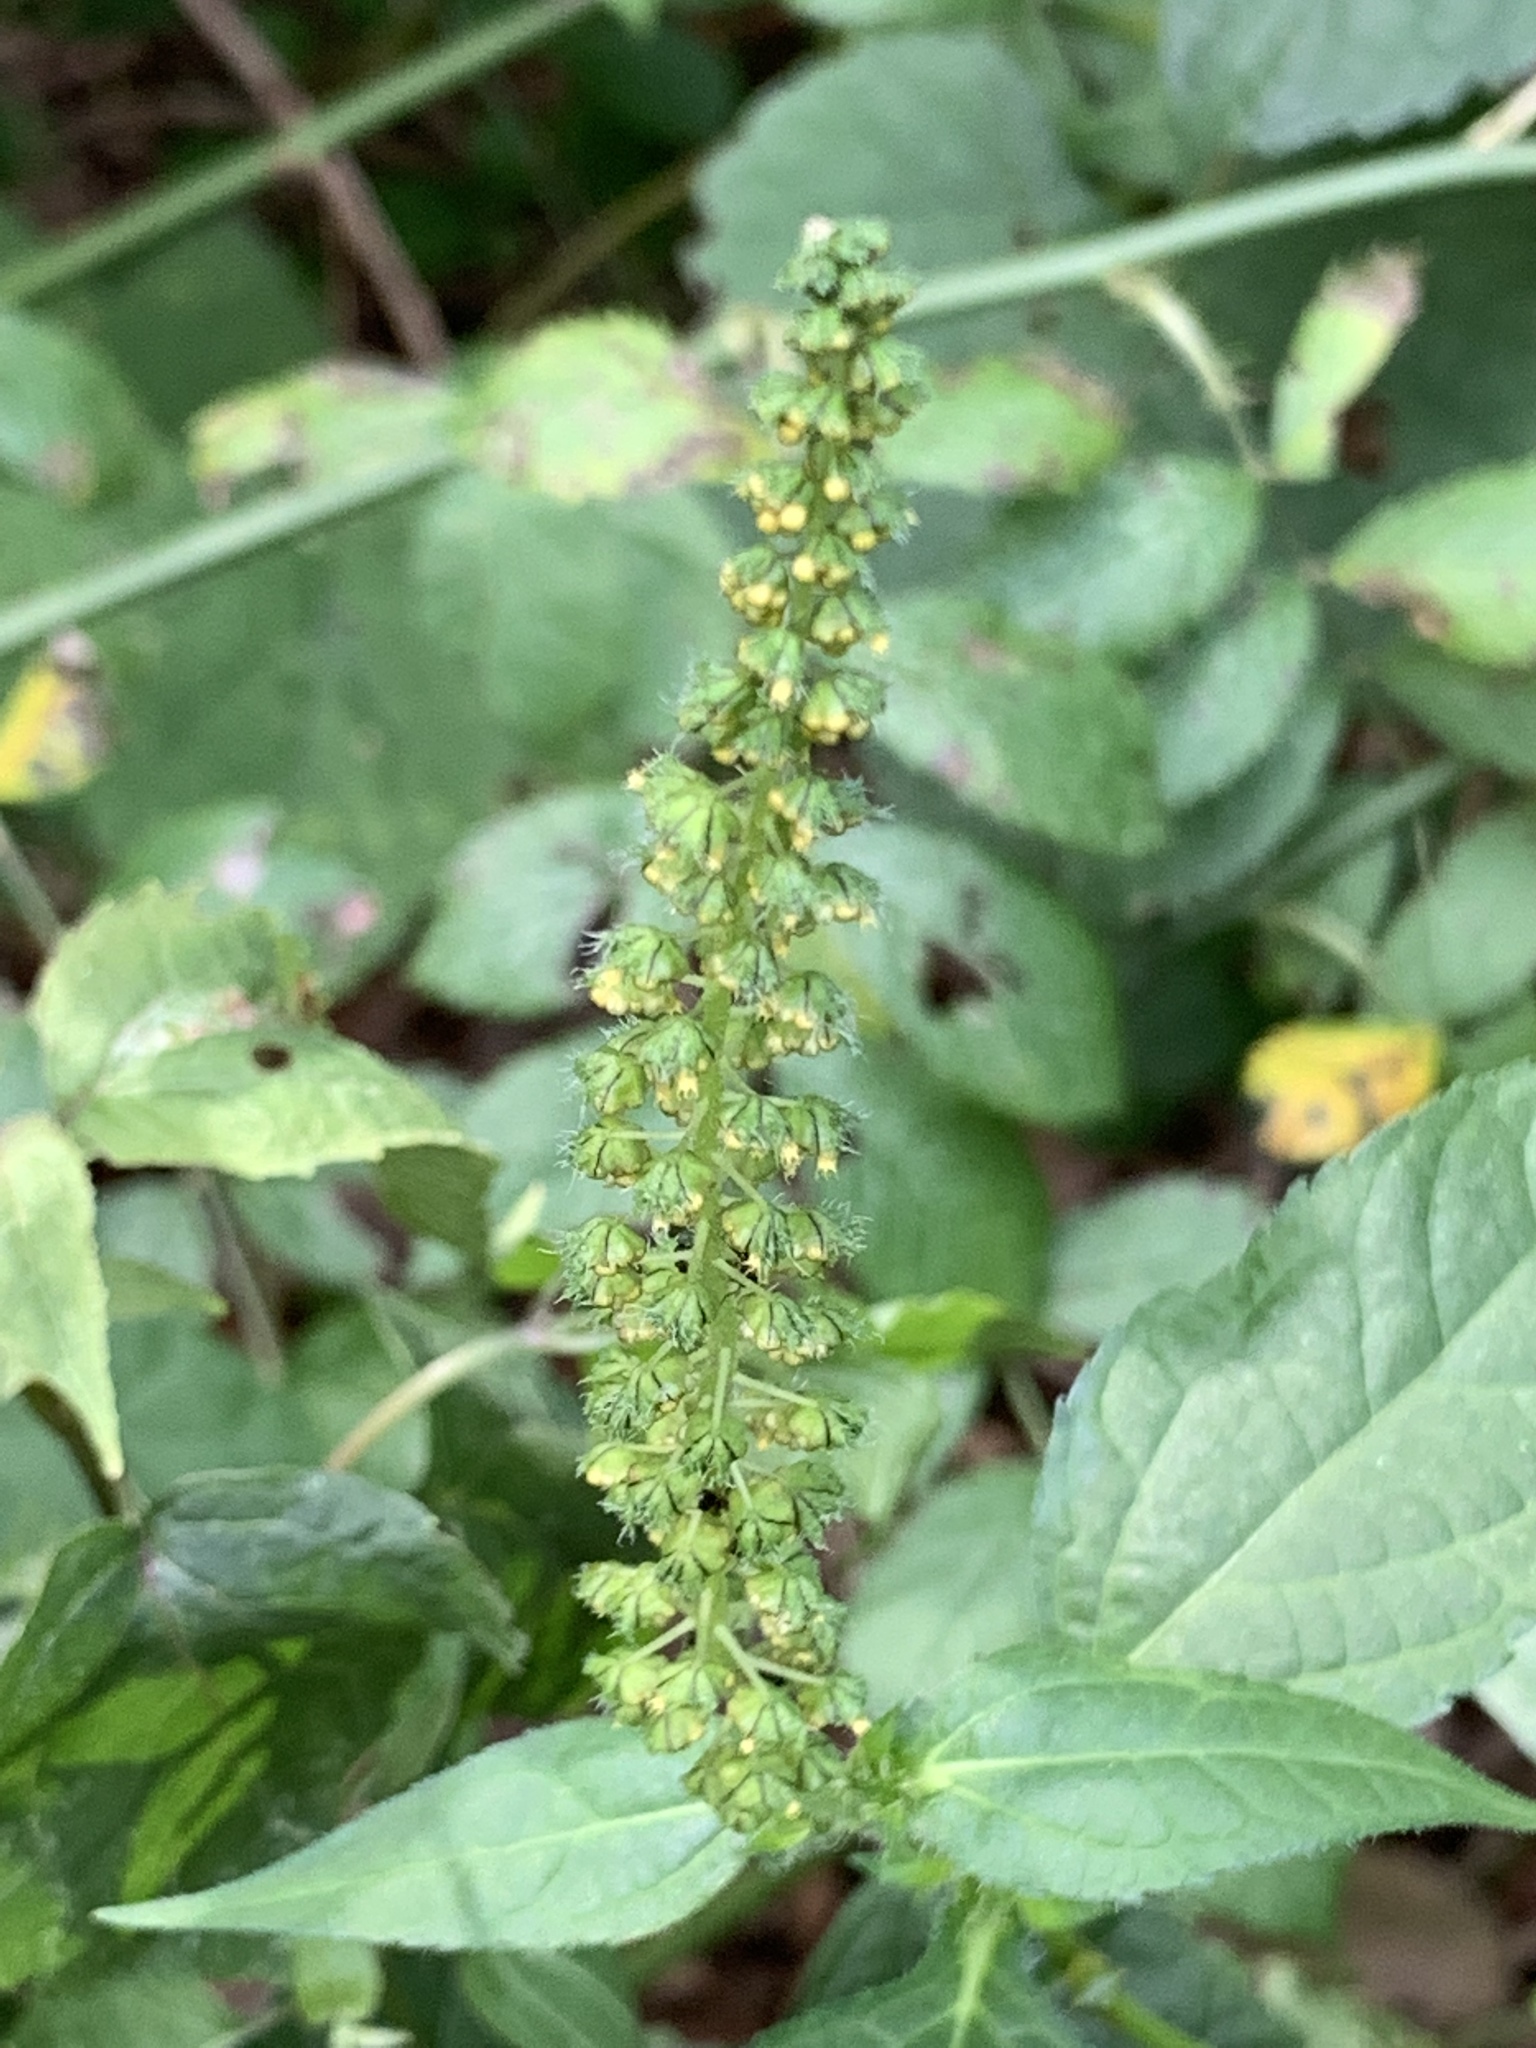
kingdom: Plantae
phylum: Tracheophyta
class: Magnoliopsida
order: Asterales
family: Asteraceae
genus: Ambrosia
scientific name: Ambrosia trifida
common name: Giant ragweed
